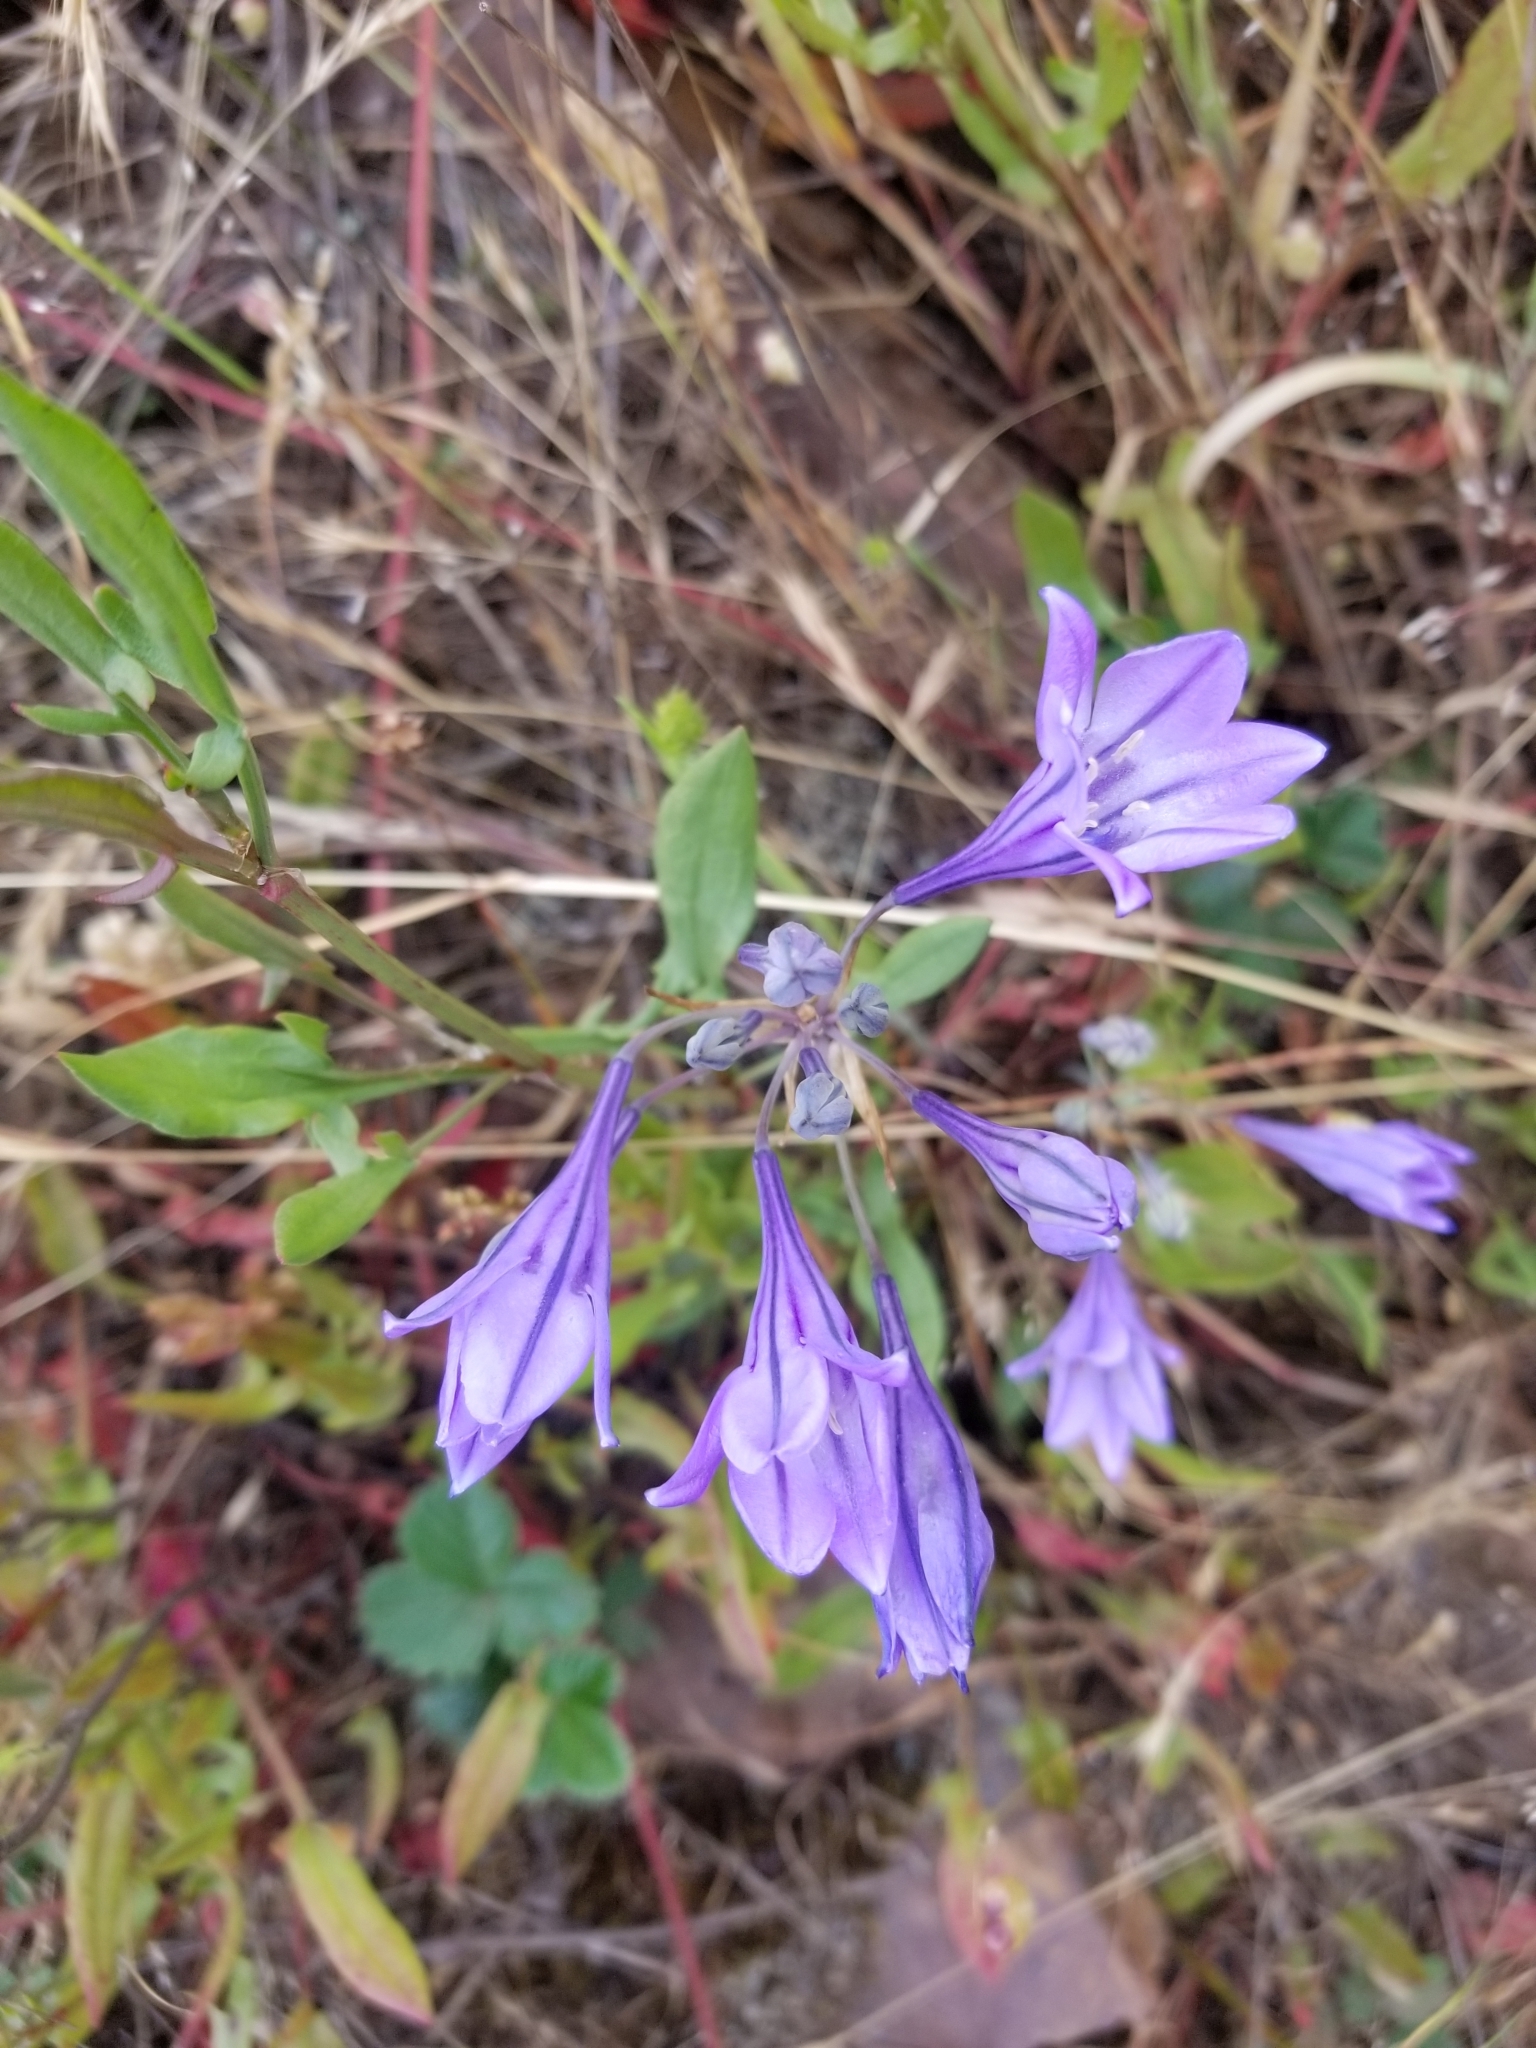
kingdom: Plantae
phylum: Tracheophyta
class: Liliopsida
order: Asparagales
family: Asparagaceae
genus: Triteleia
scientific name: Triteleia laxa
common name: Triplet-lily
